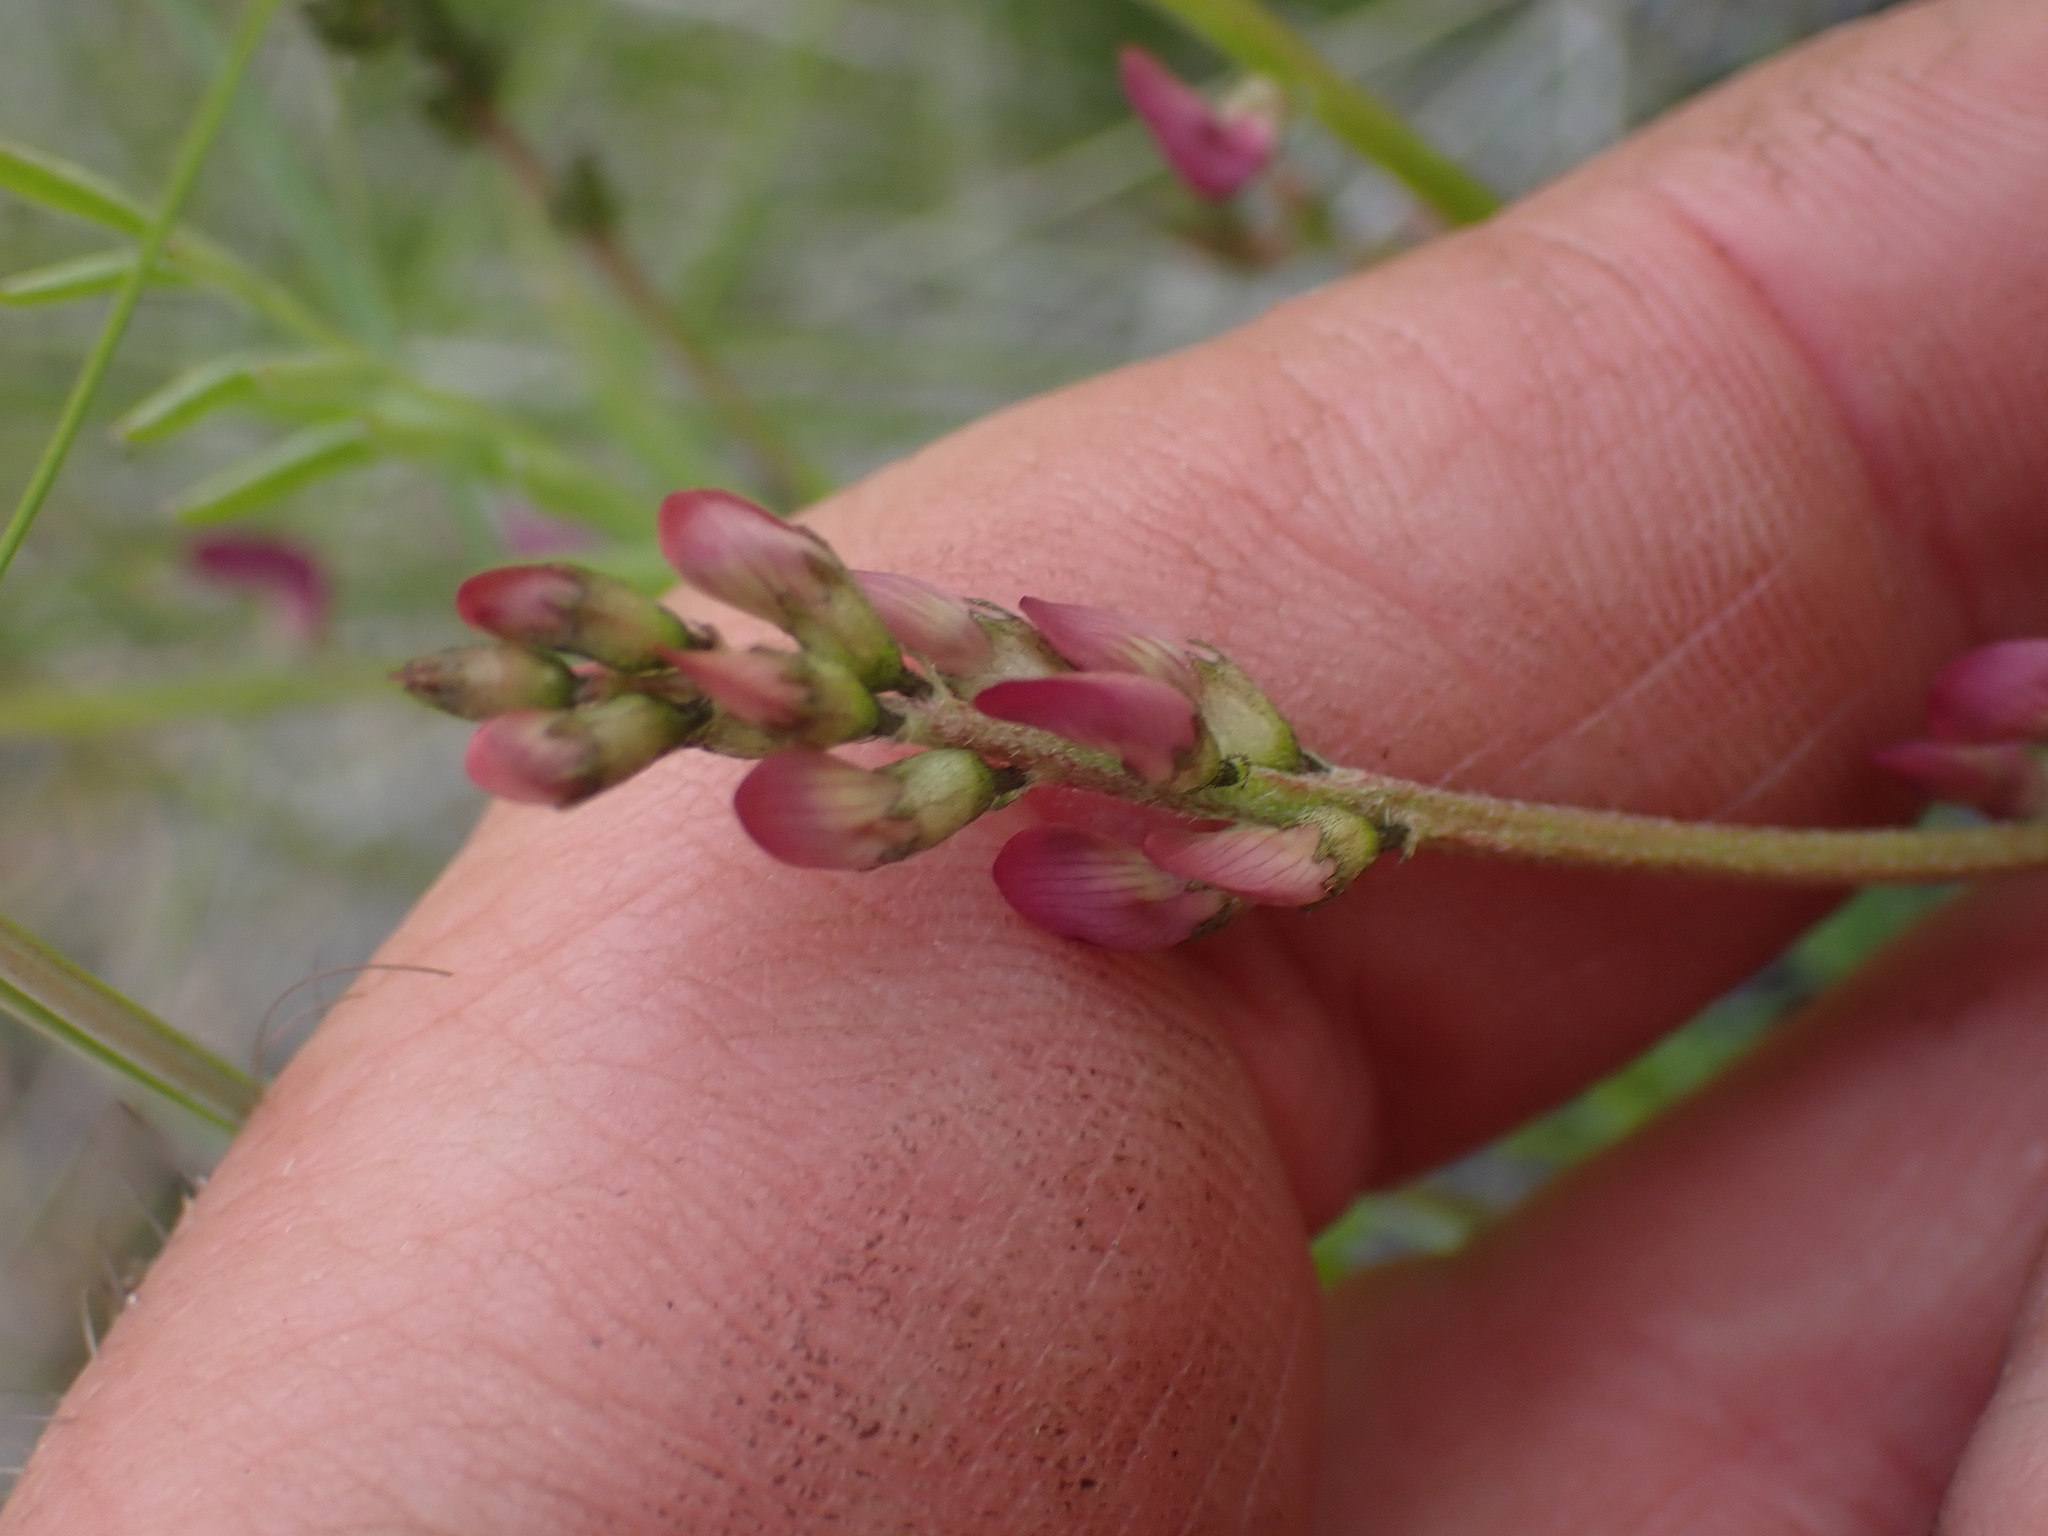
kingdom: Plantae
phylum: Tracheophyta
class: Magnoliopsida
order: Fabales
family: Fabaceae
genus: Astragalus
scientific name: Astragalus miser
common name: Timber milkvetch
